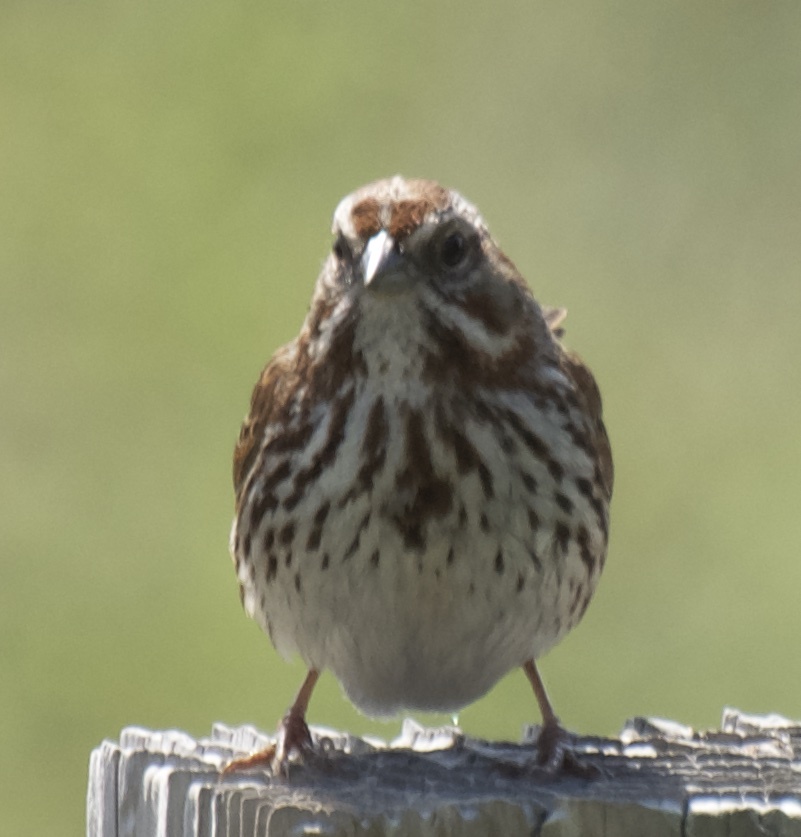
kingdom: Animalia
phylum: Chordata
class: Aves
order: Passeriformes
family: Passerellidae
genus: Melospiza
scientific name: Melospiza melodia
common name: Song sparrow
